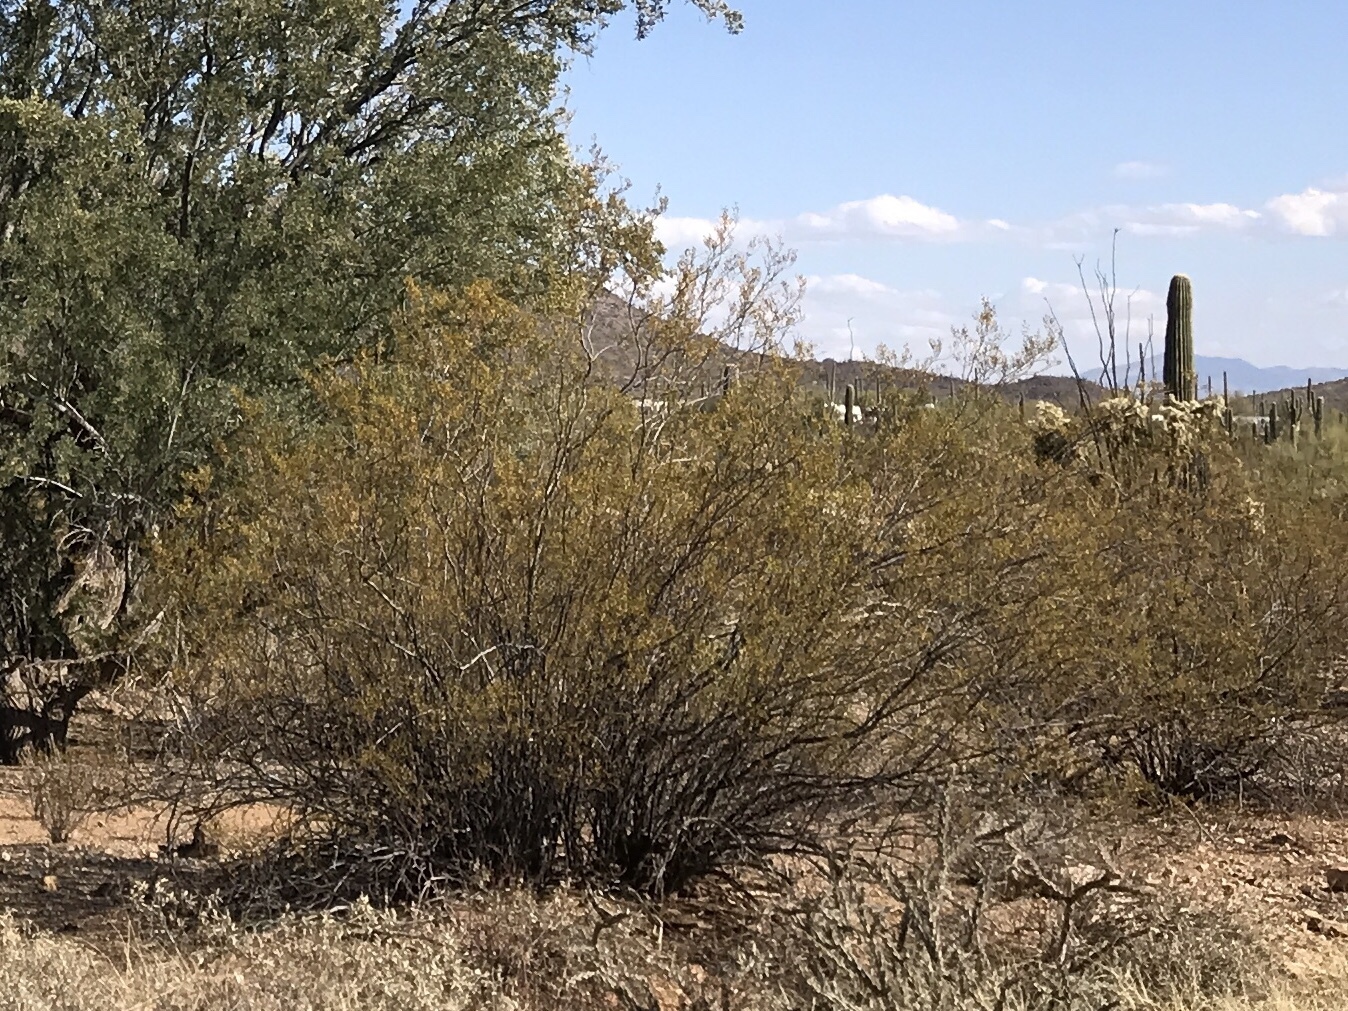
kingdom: Plantae
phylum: Tracheophyta
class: Magnoliopsida
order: Zygophyllales
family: Zygophyllaceae
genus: Larrea
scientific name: Larrea tridentata
